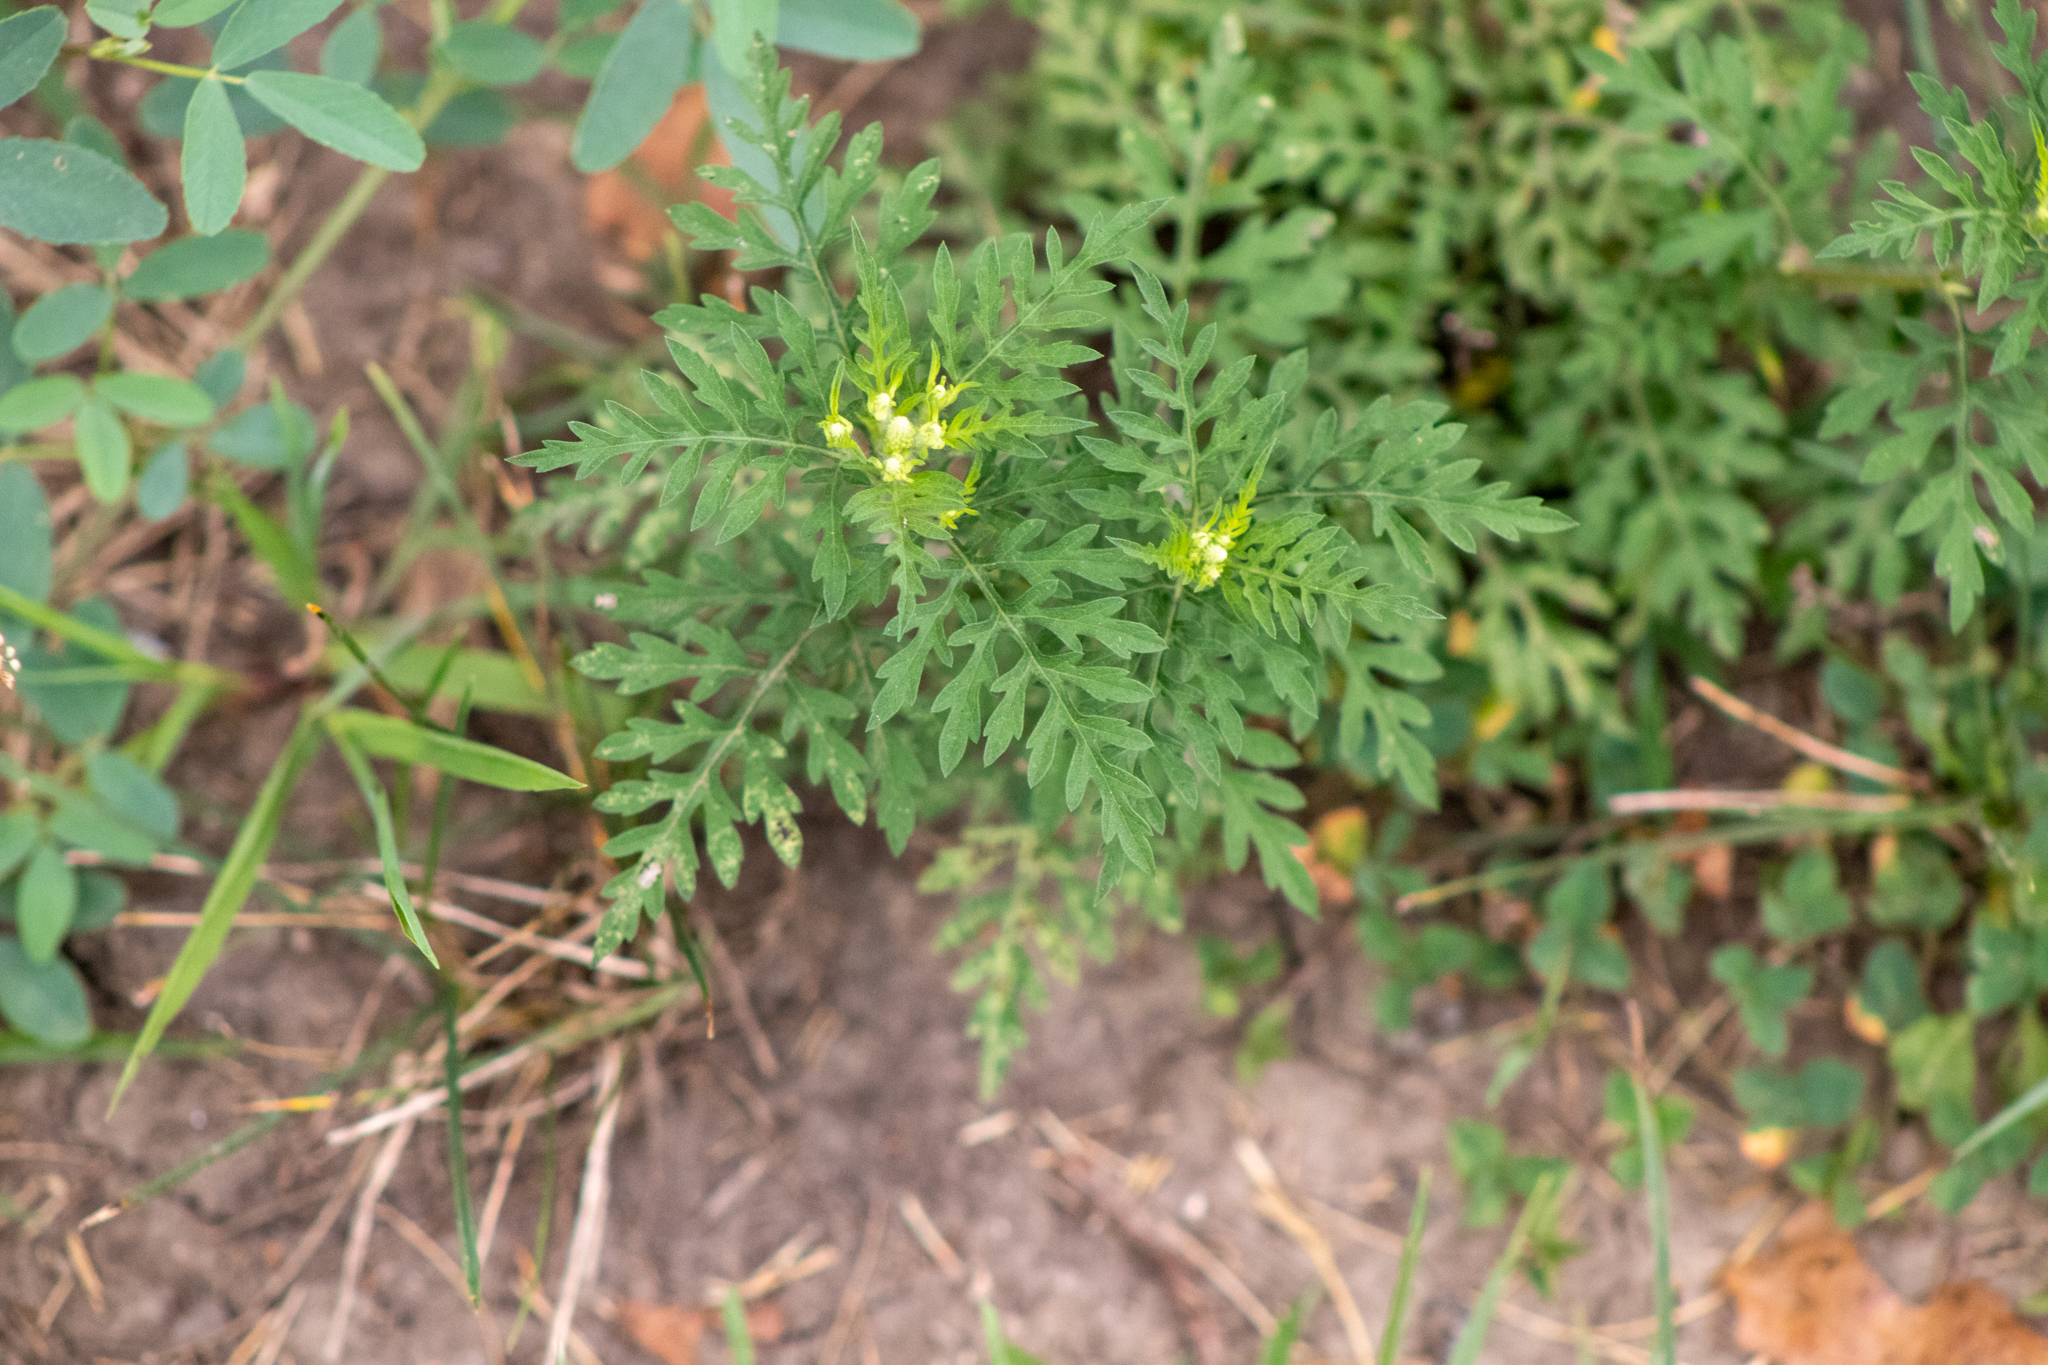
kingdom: Plantae
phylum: Tracheophyta
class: Magnoliopsida
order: Asterales
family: Asteraceae
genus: Ambrosia
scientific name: Ambrosia artemisiifolia
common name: Annual ragweed
